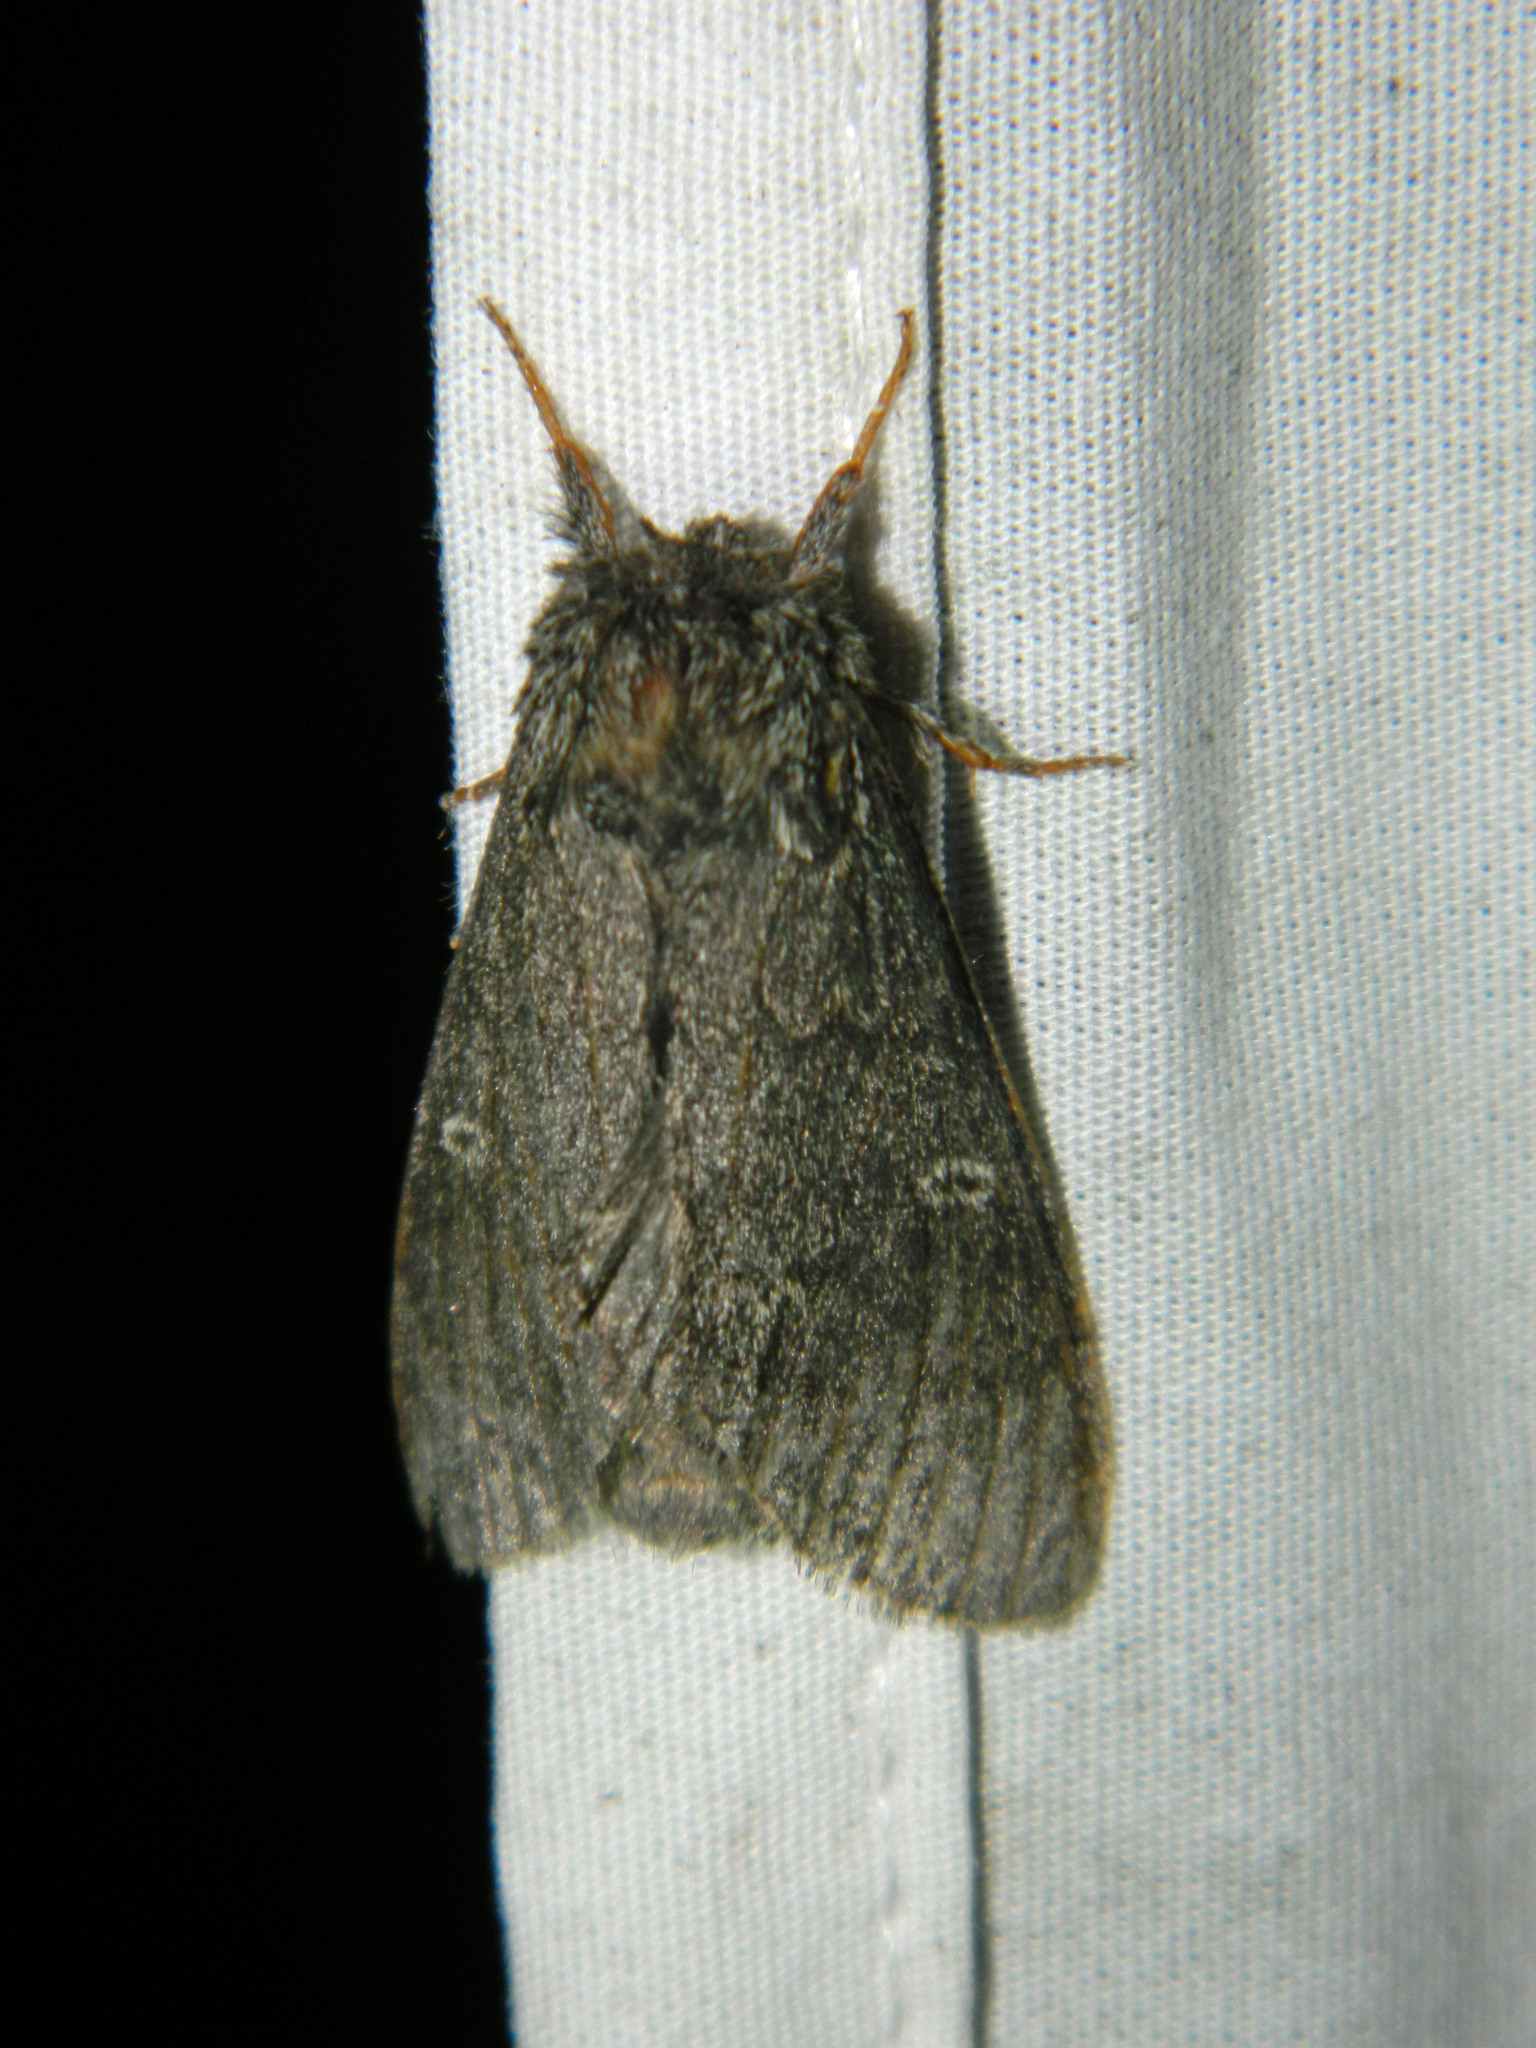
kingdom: Animalia
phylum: Arthropoda
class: Insecta
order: Lepidoptera
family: Notodontidae
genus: Notodonta
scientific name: Notodonta torva
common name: Large dark prominent
